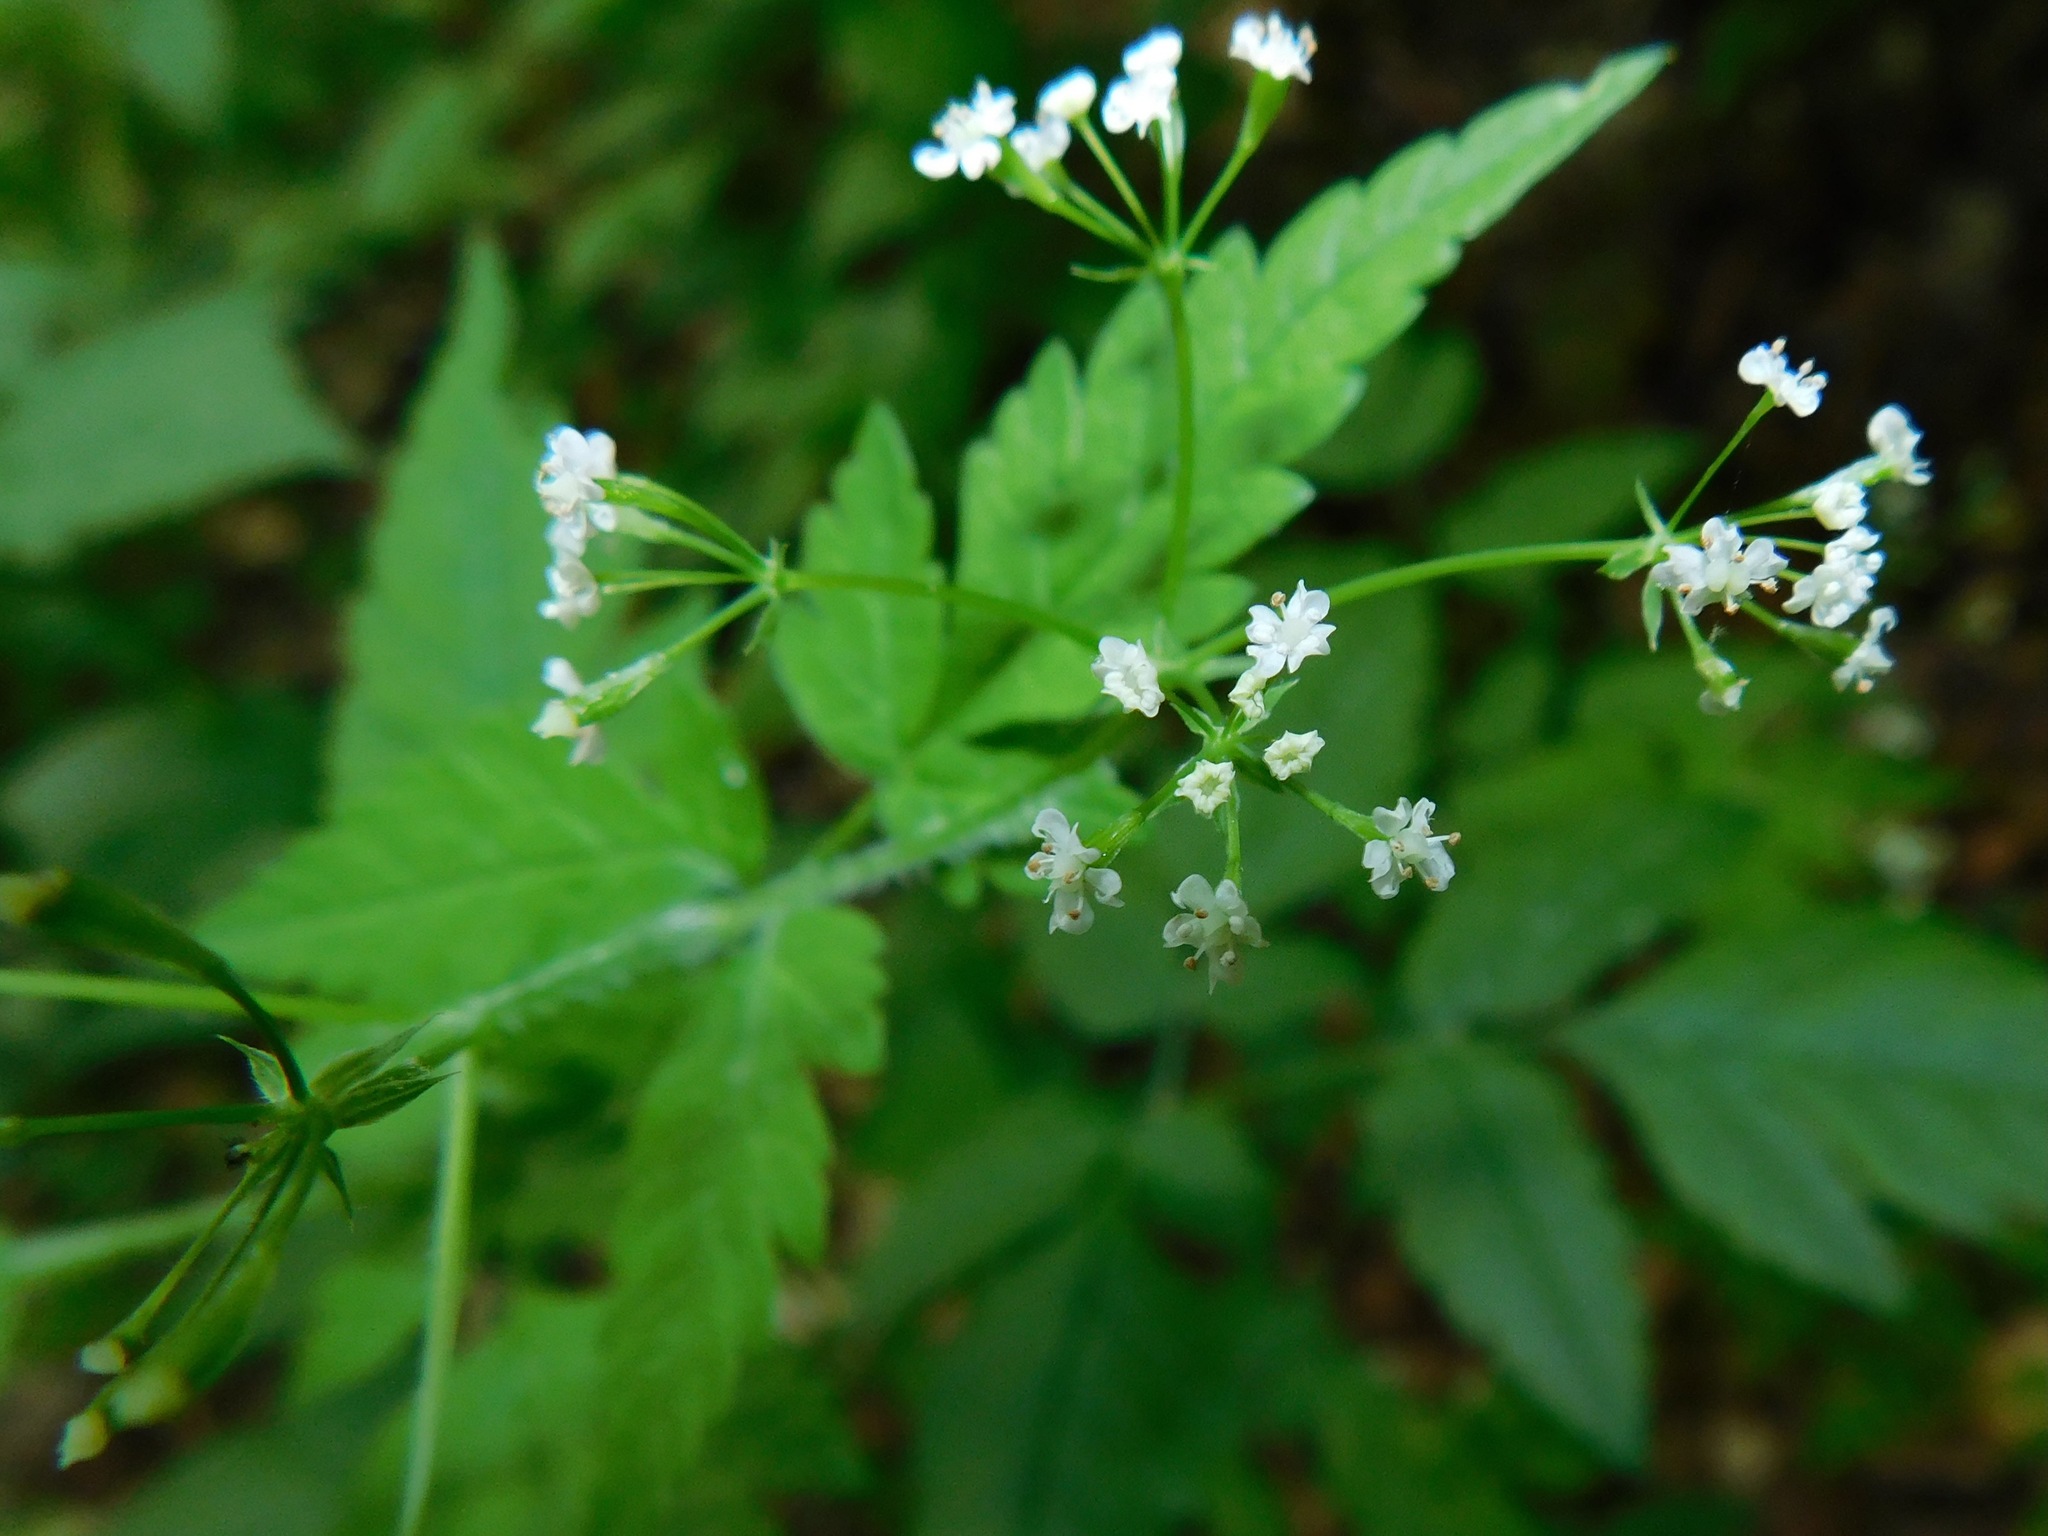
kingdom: Plantae
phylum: Tracheophyta
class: Magnoliopsida
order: Apiales
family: Apiaceae
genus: Cryptotaenia
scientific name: Cryptotaenia canadensis
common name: Honewort
